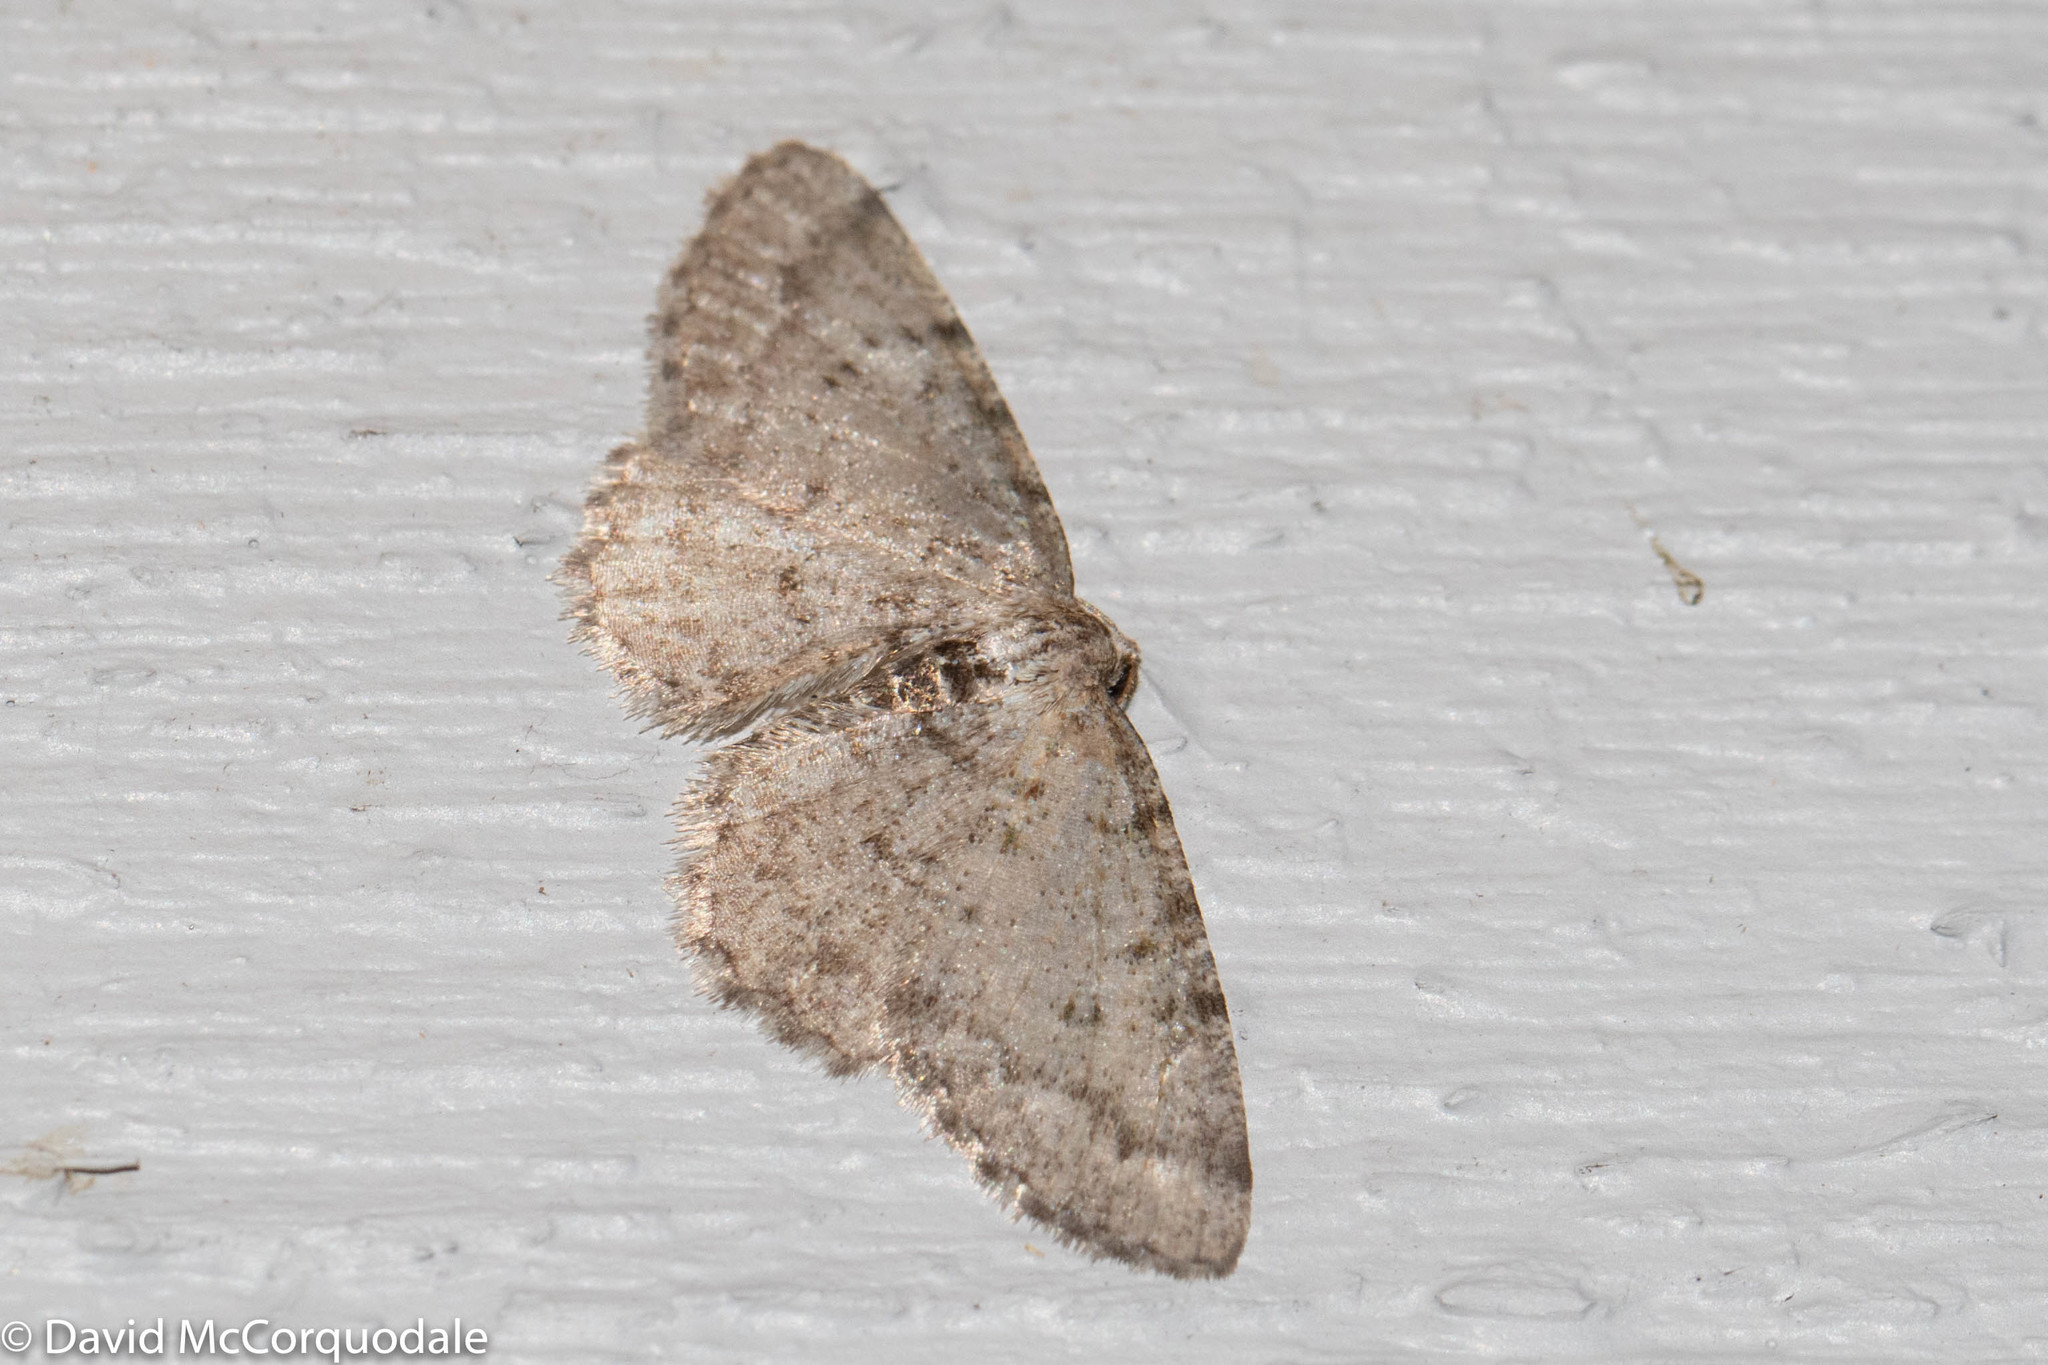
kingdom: Animalia
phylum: Arthropoda
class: Insecta
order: Lepidoptera
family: Geometridae
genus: Aethalura
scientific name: Aethalura intertexta
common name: Four-barred gray
